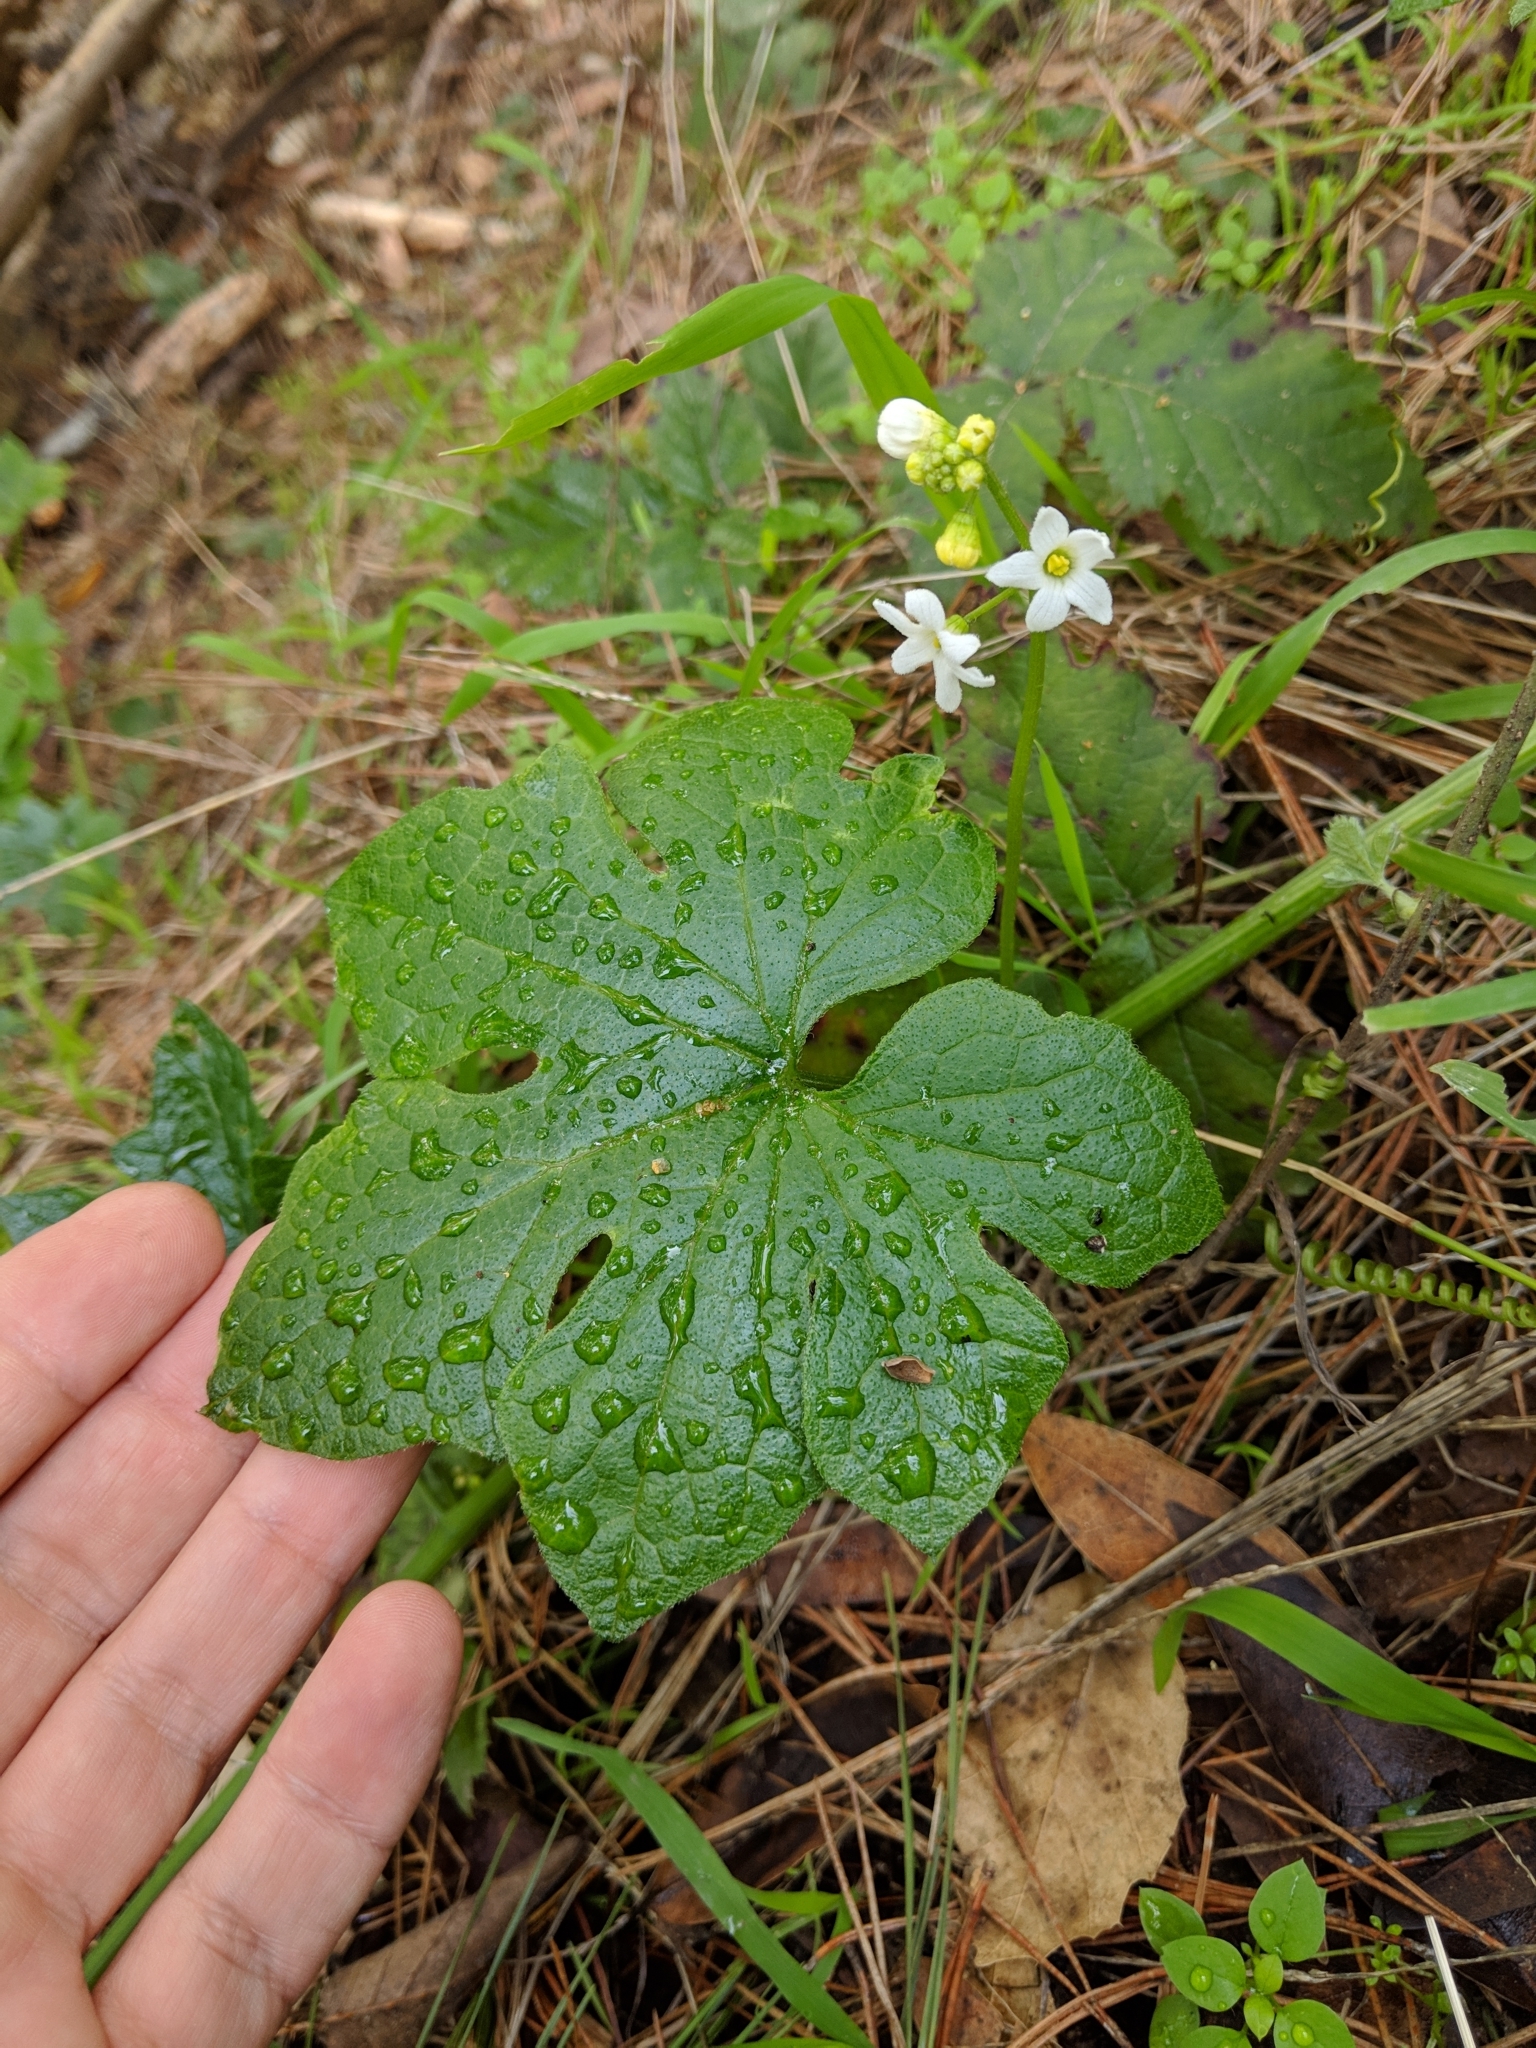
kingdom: Plantae
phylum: Tracheophyta
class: Magnoliopsida
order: Cucurbitales
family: Cucurbitaceae
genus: Marah
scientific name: Marah oregana
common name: Coastal manroot
